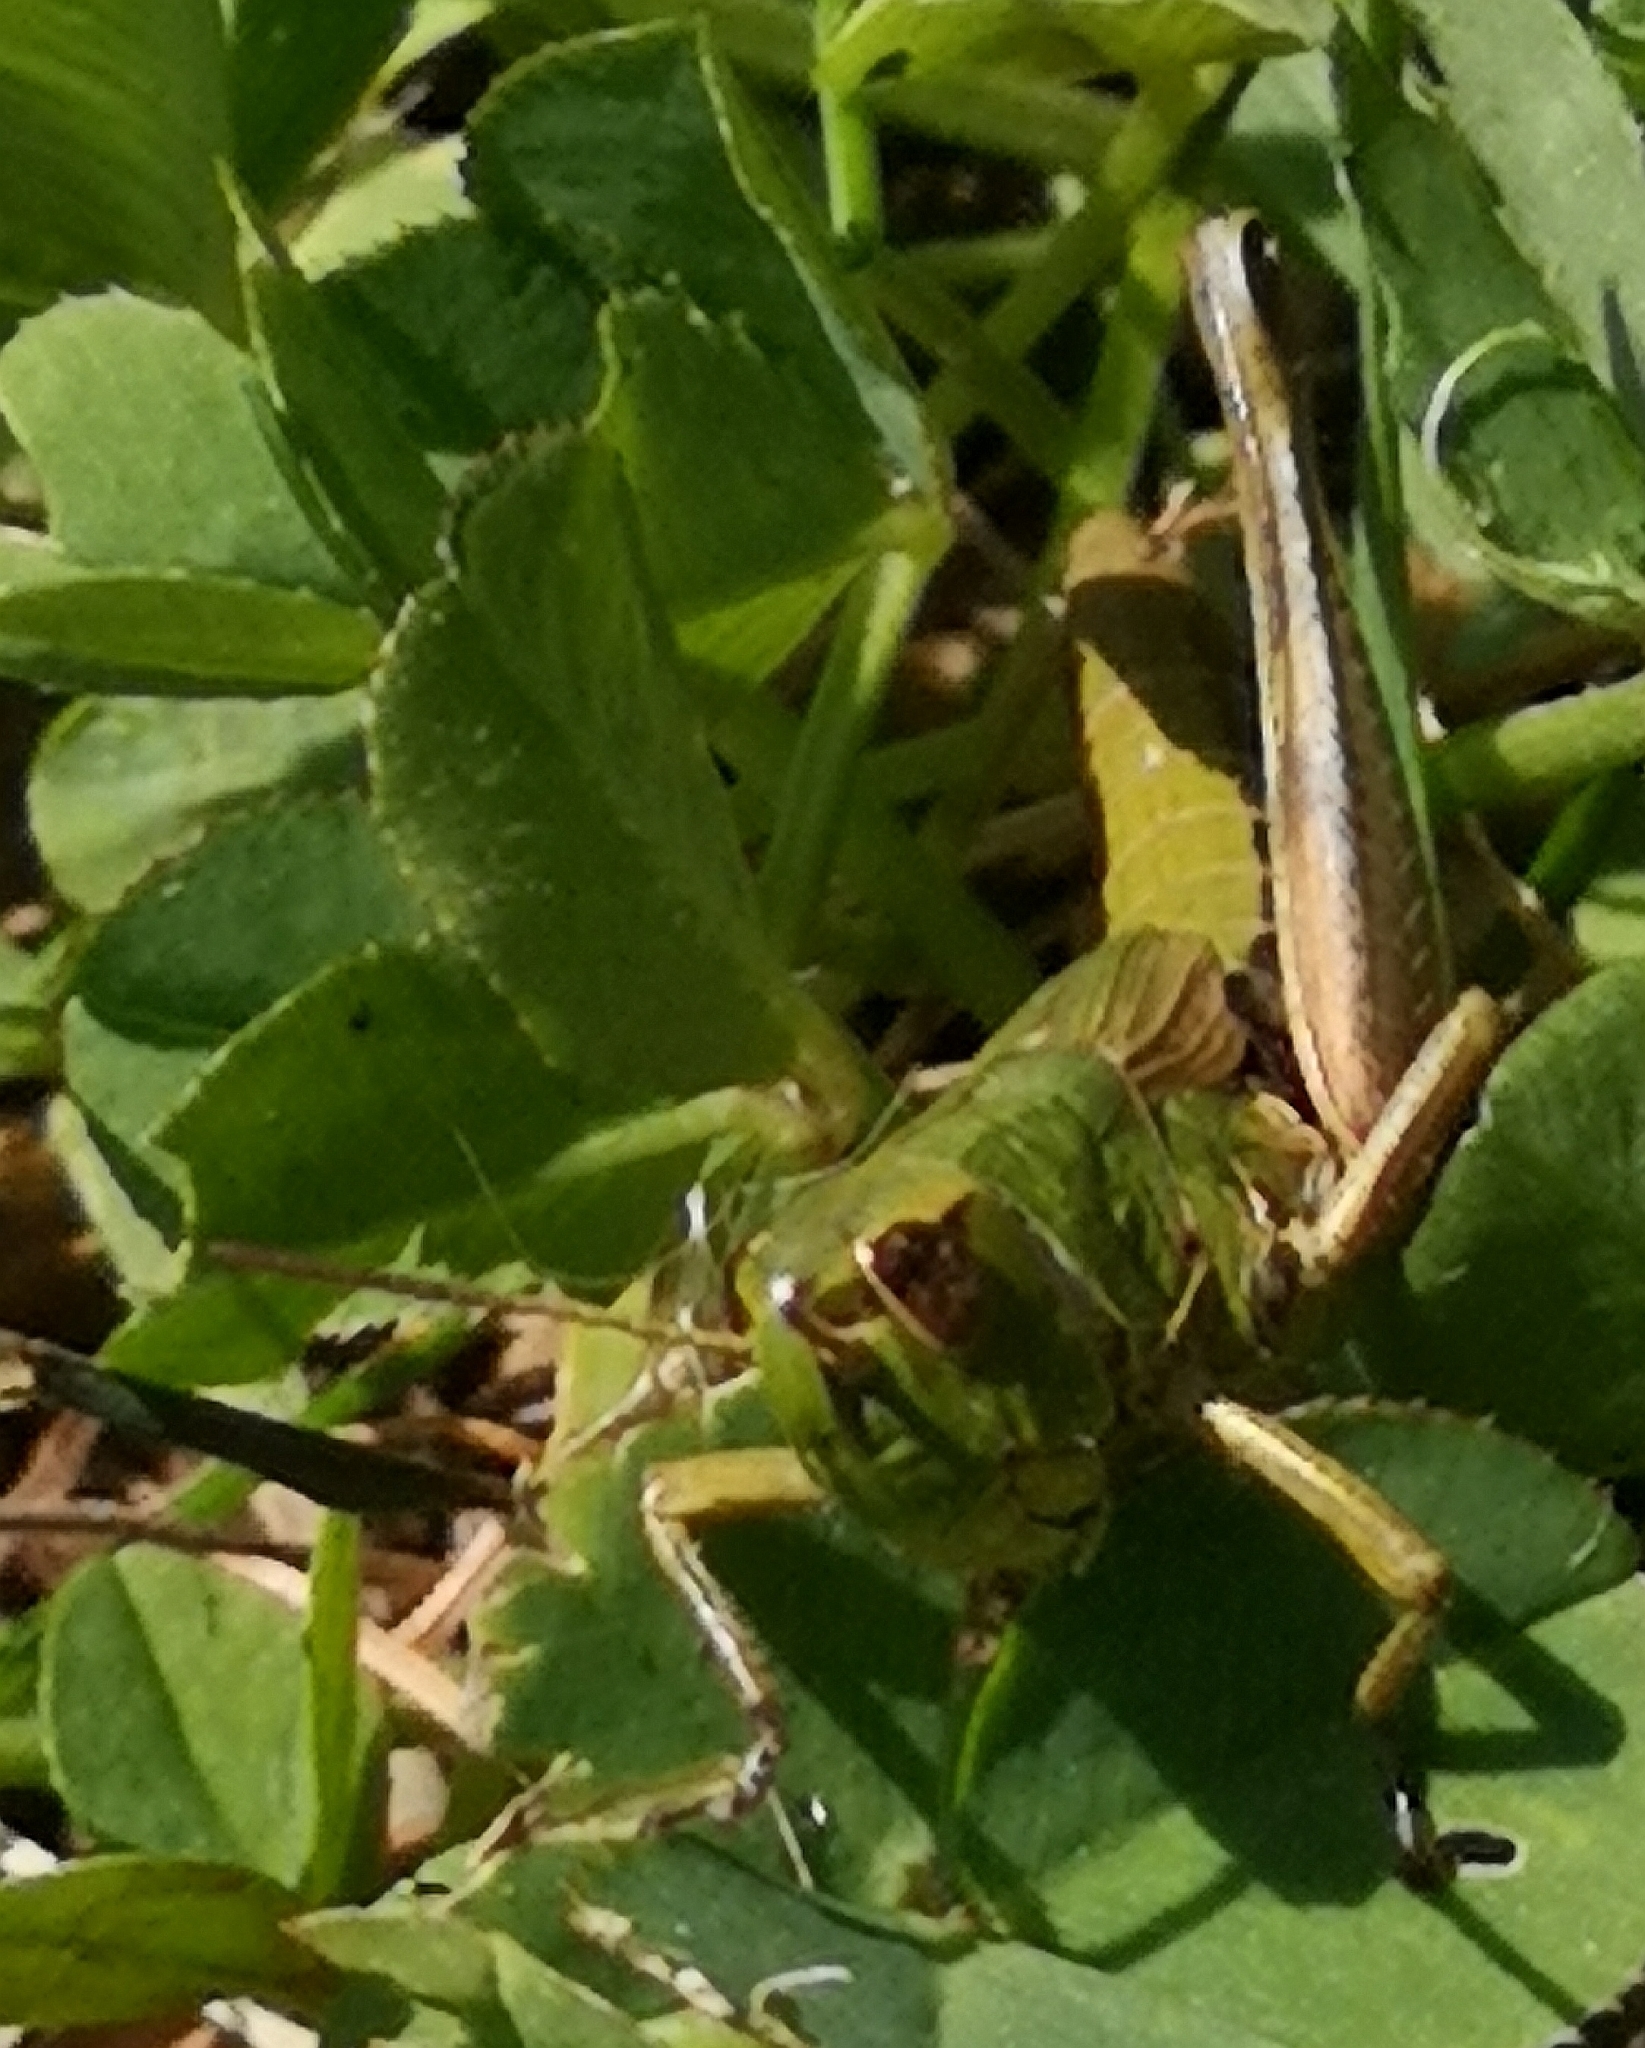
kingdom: Animalia
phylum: Arthropoda
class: Insecta
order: Orthoptera
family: Acrididae
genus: Pseudochorthippus
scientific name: Pseudochorthippus parallelus
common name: Meadow grasshopper
